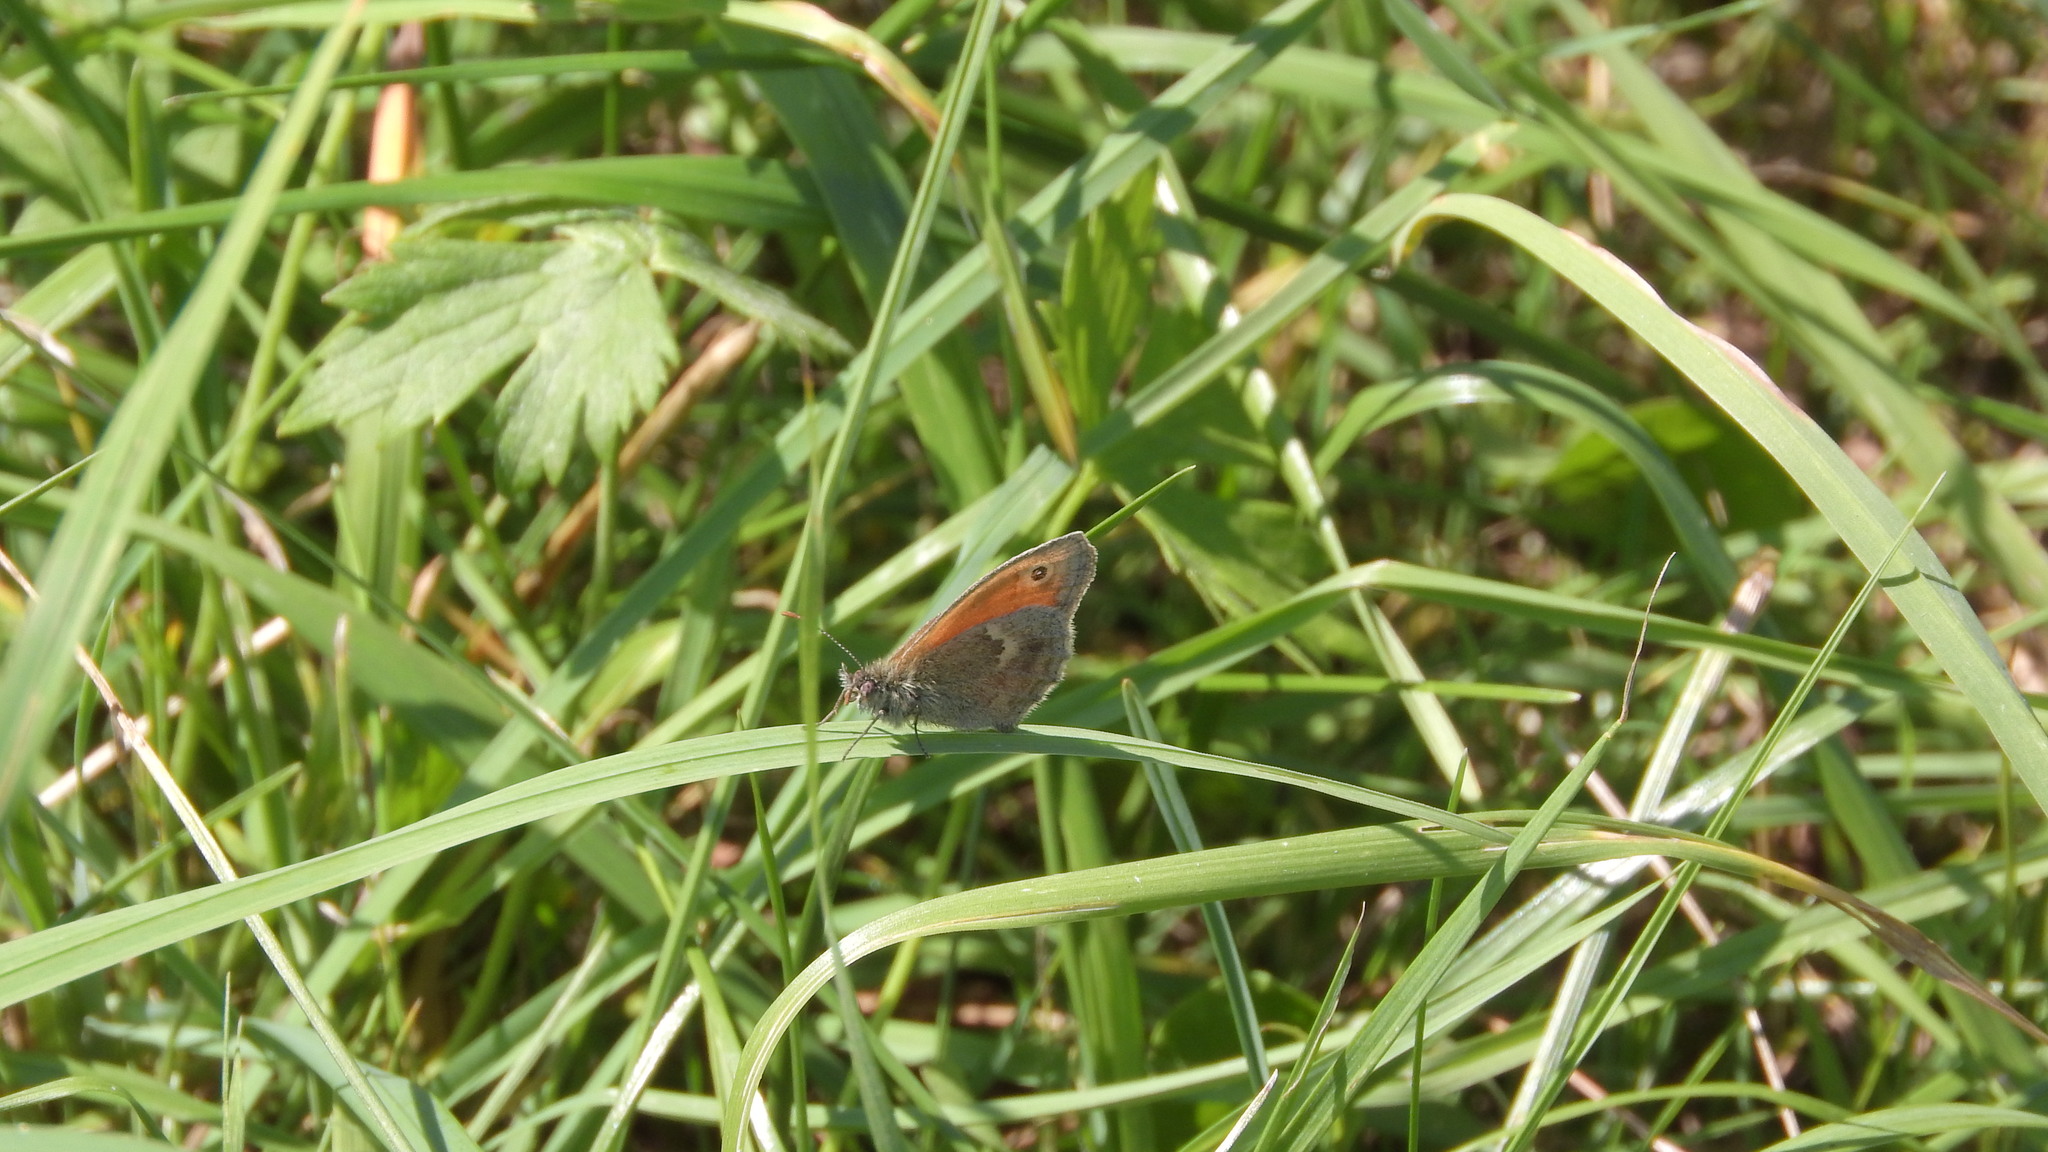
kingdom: Animalia
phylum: Arthropoda
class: Insecta
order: Lepidoptera
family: Nymphalidae
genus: Coenonympha
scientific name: Coenonympha pamphilus
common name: Small heath
